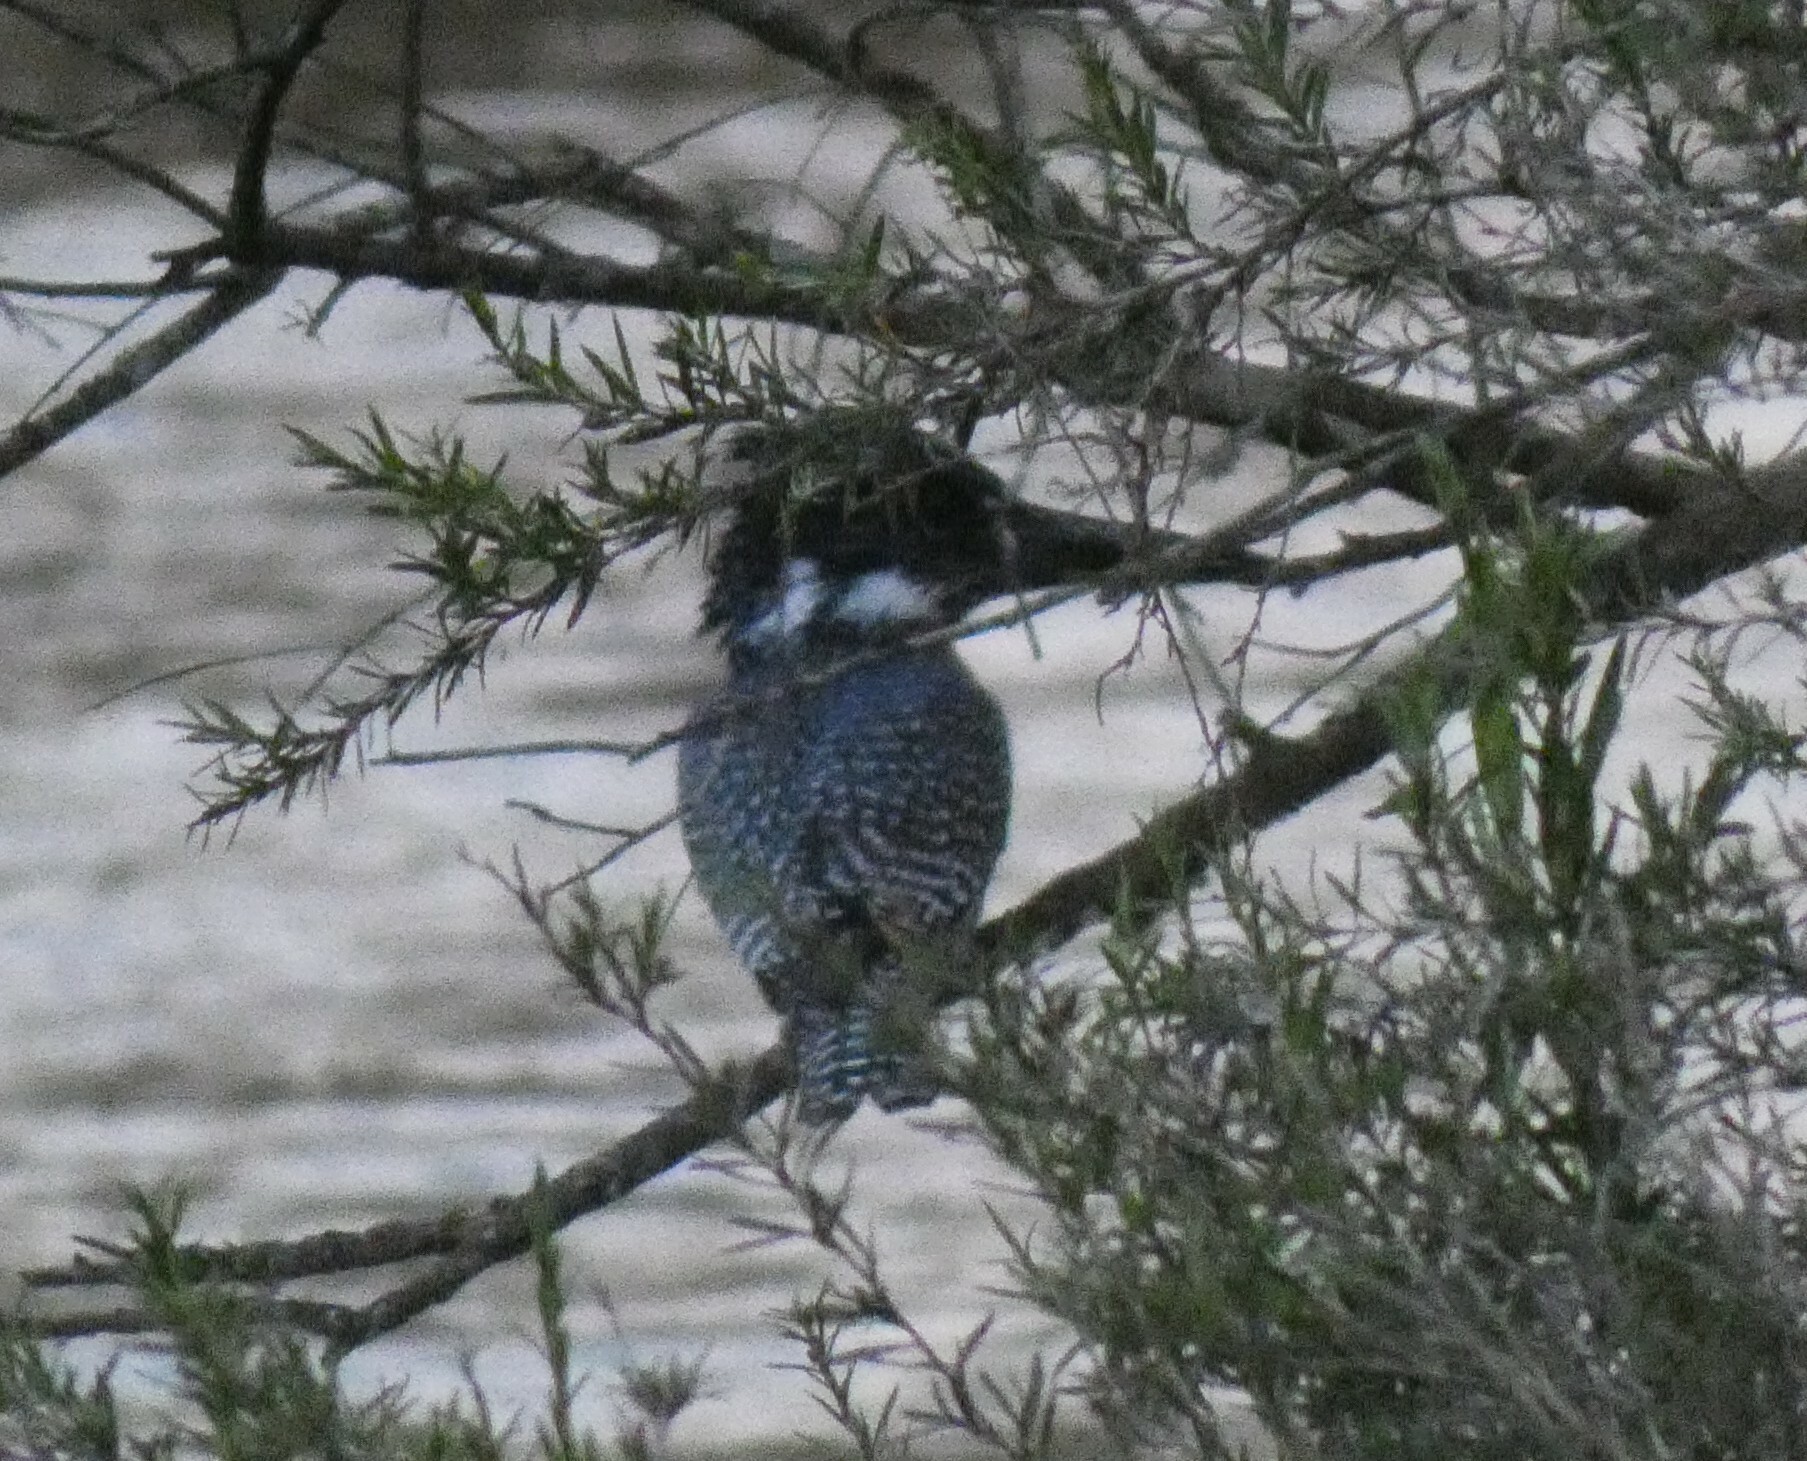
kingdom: Animalia
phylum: Chordata
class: Aves
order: Coraciiformes
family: Alcedinidae
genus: Megaceryle
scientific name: Megaceryle maxima
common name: Giant kingfisher
